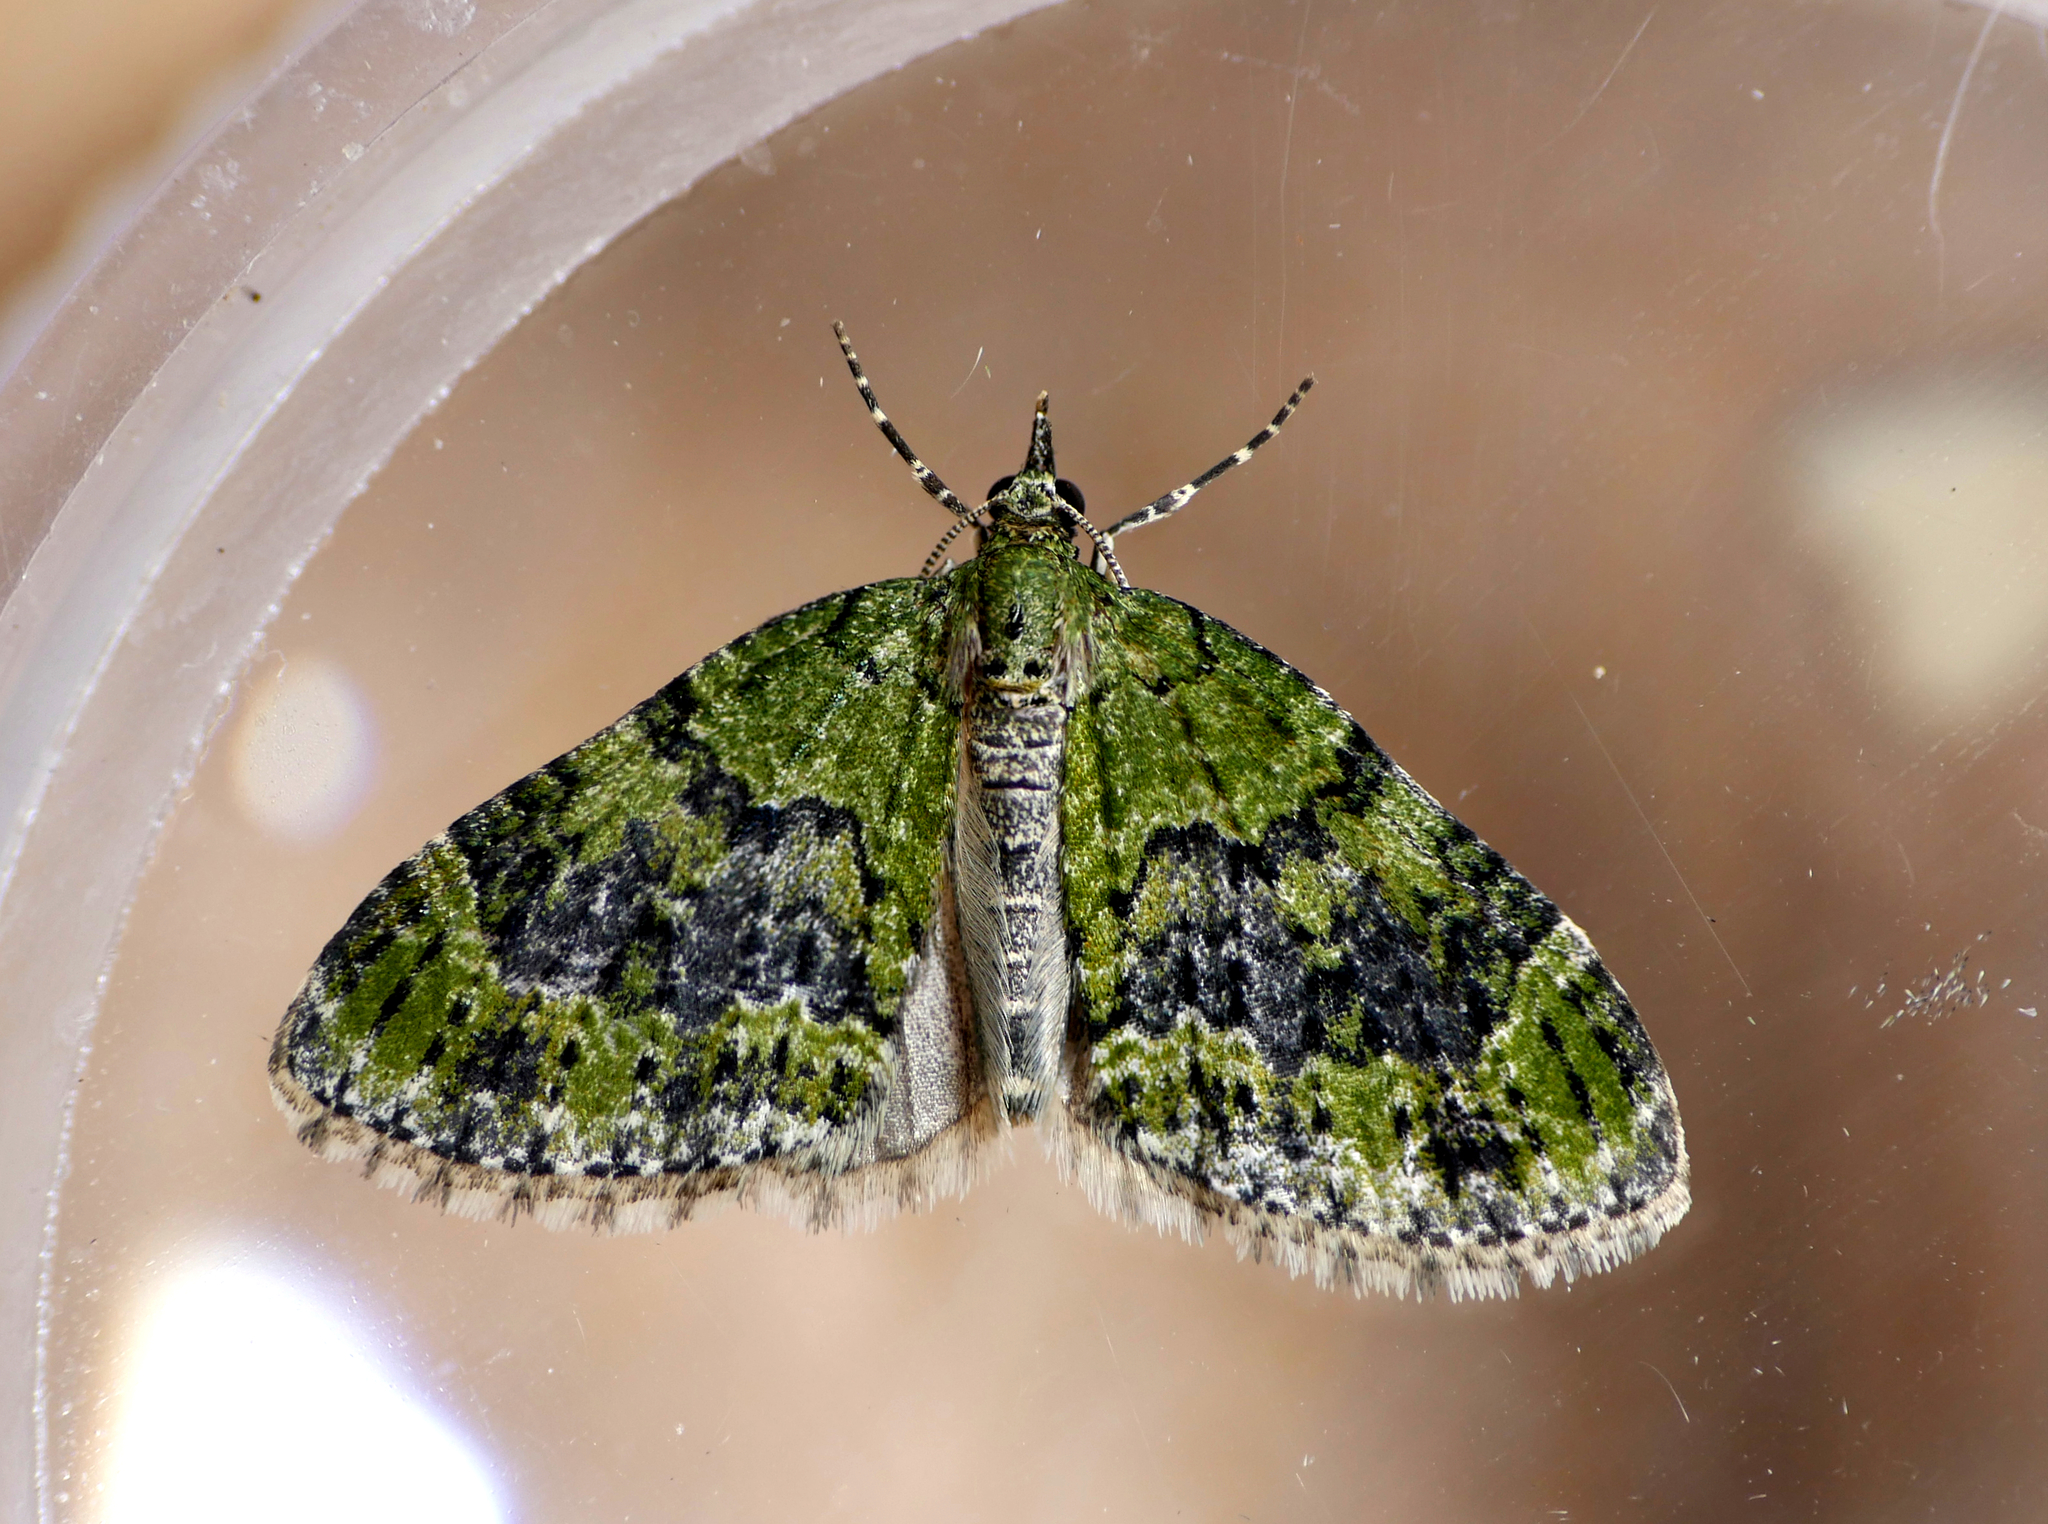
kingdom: Animalia
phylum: Arthropoda
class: Insecta
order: Lepidoptera
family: Geometridae
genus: Acasis
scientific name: Acasis viretata
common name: Yellow-barred brindle
